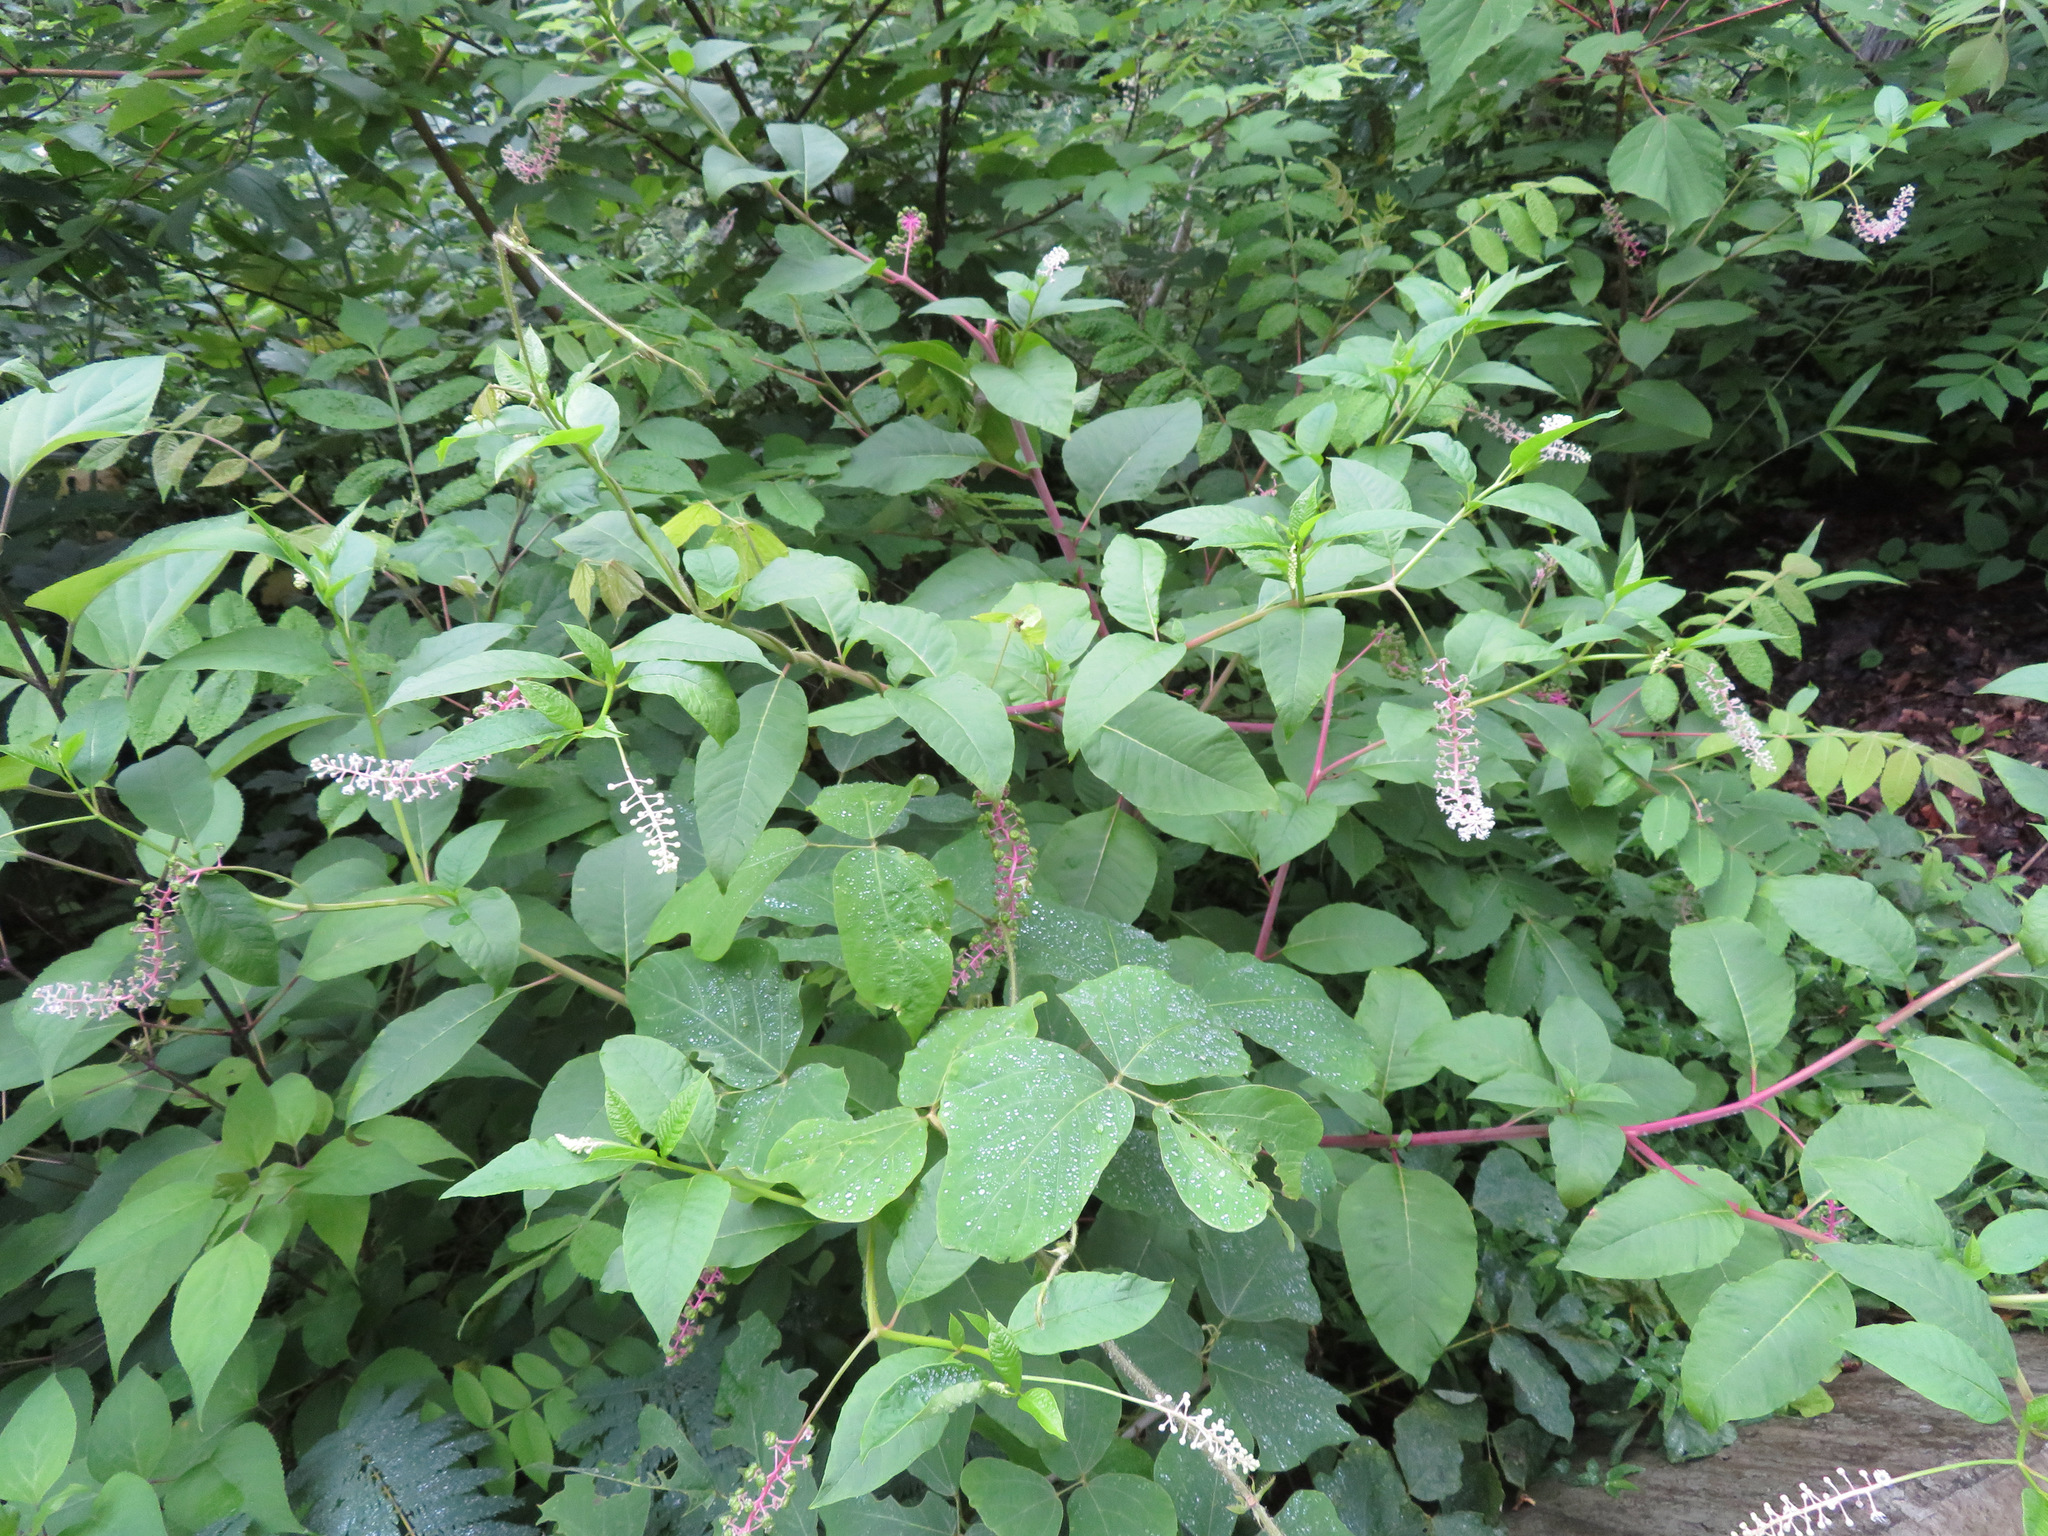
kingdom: Plantae
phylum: Tracheophyta
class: Magnoliopsida
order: Caryophyllales
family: Phytolaccaceae
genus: Phytolacca
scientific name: Phytolacca americana
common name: American pokeweed
